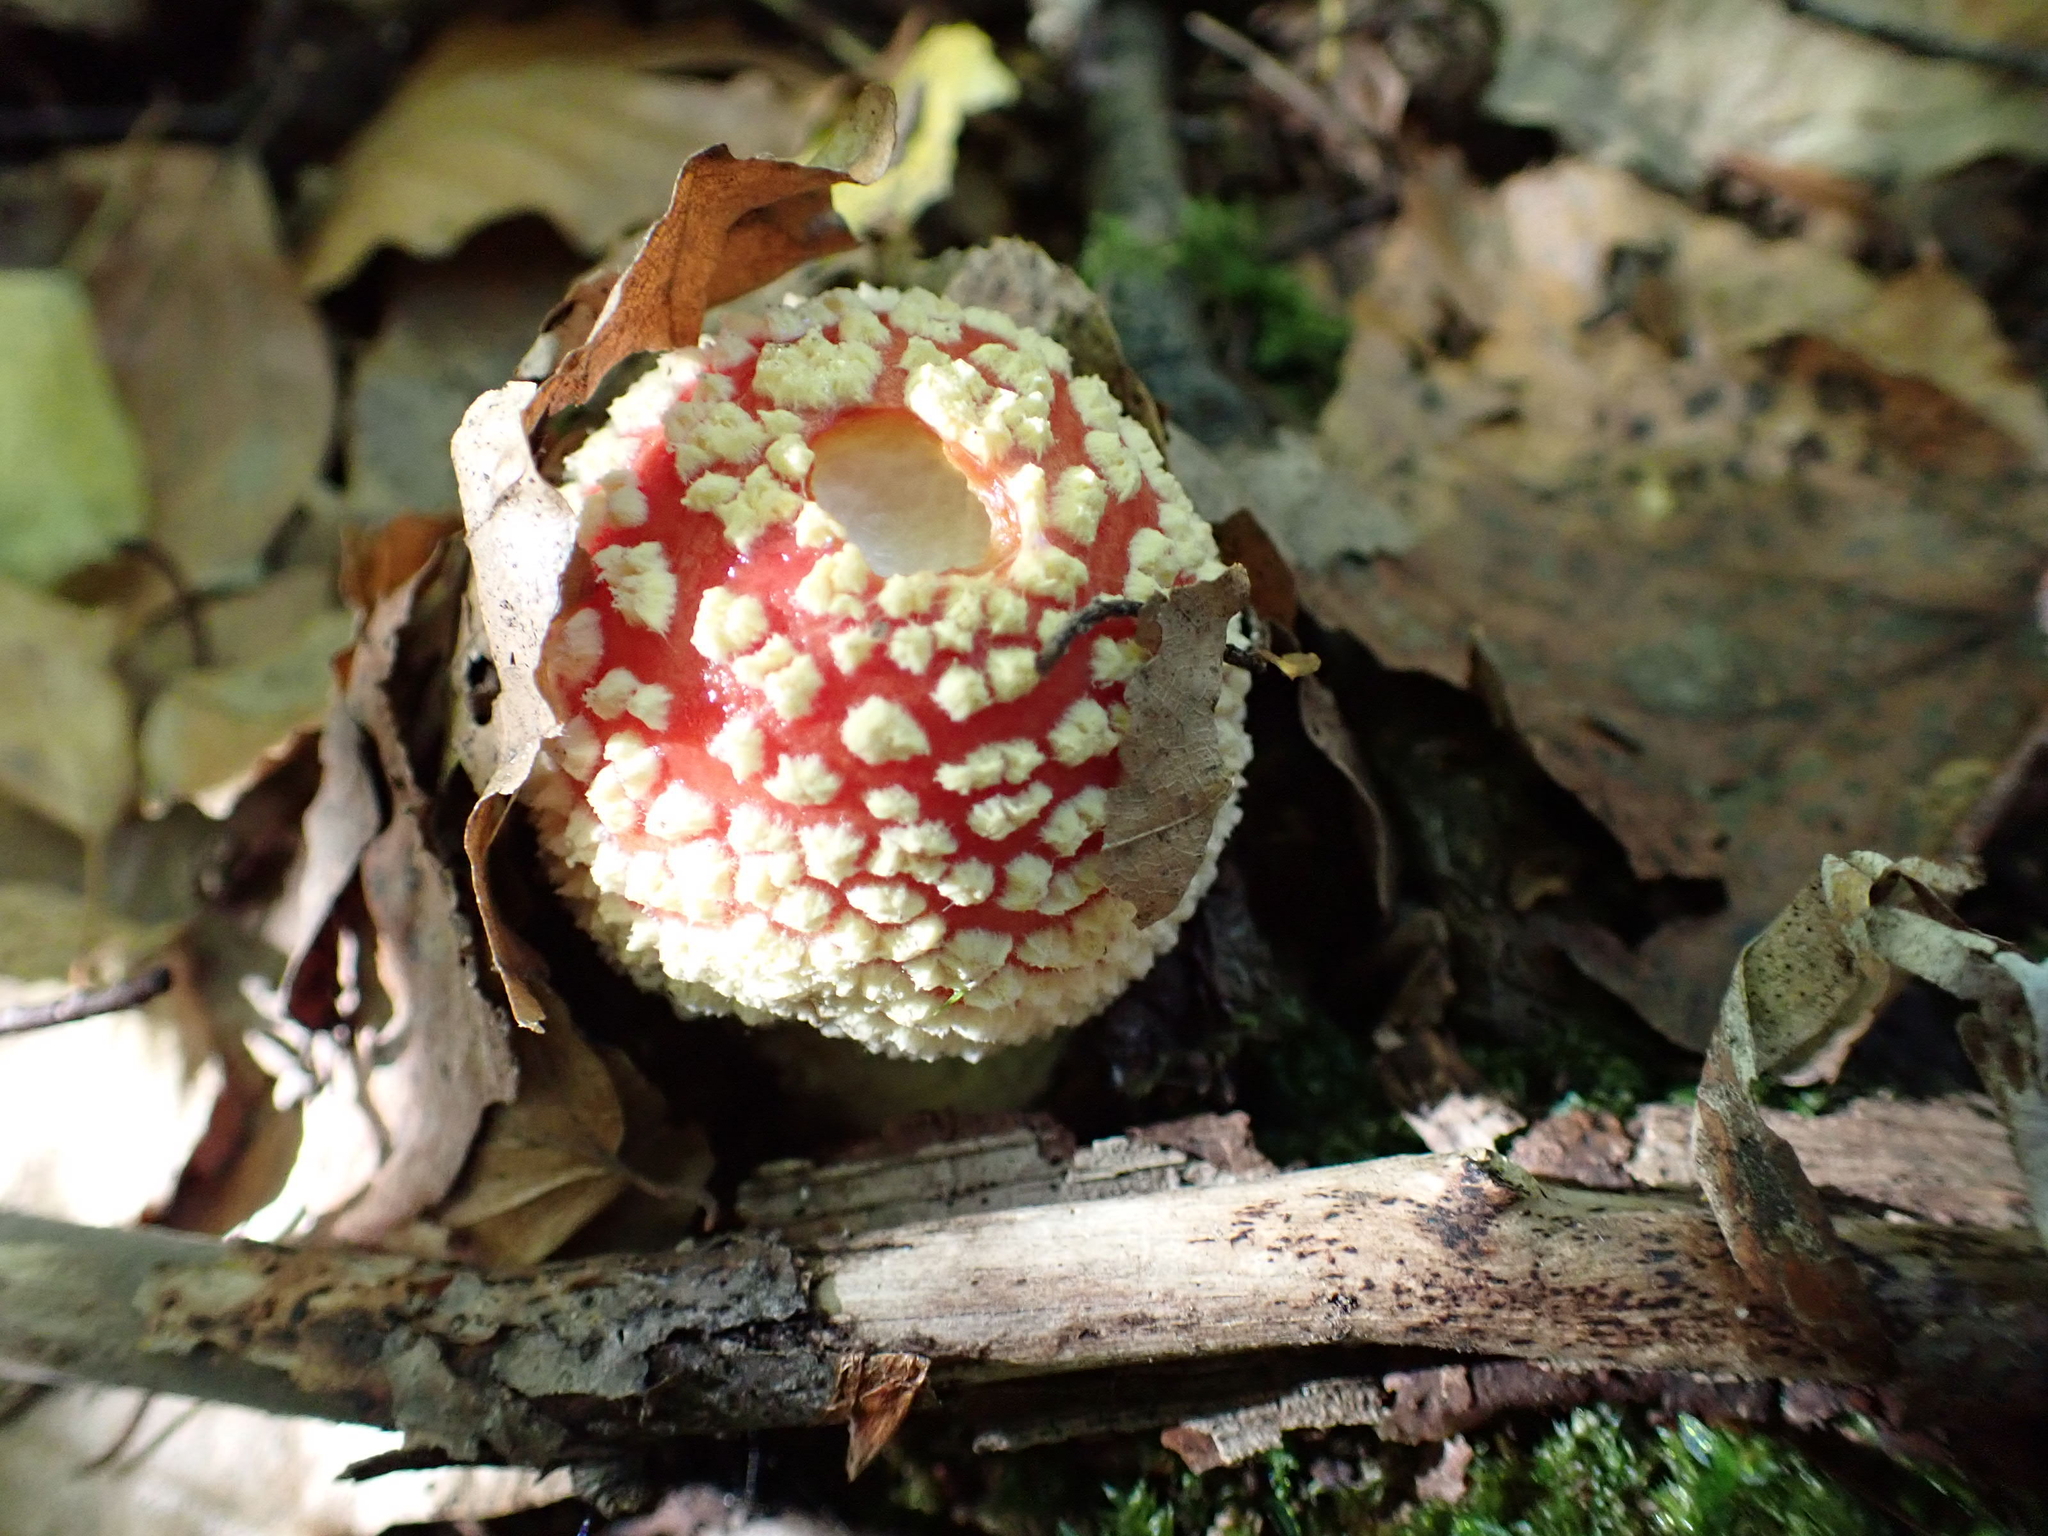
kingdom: Fungi
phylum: Basidiomycota
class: Agaricomycetes
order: Agaricales
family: Amanitaceae
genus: Amanita
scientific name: Amanita muscaria
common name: Fly agaric
